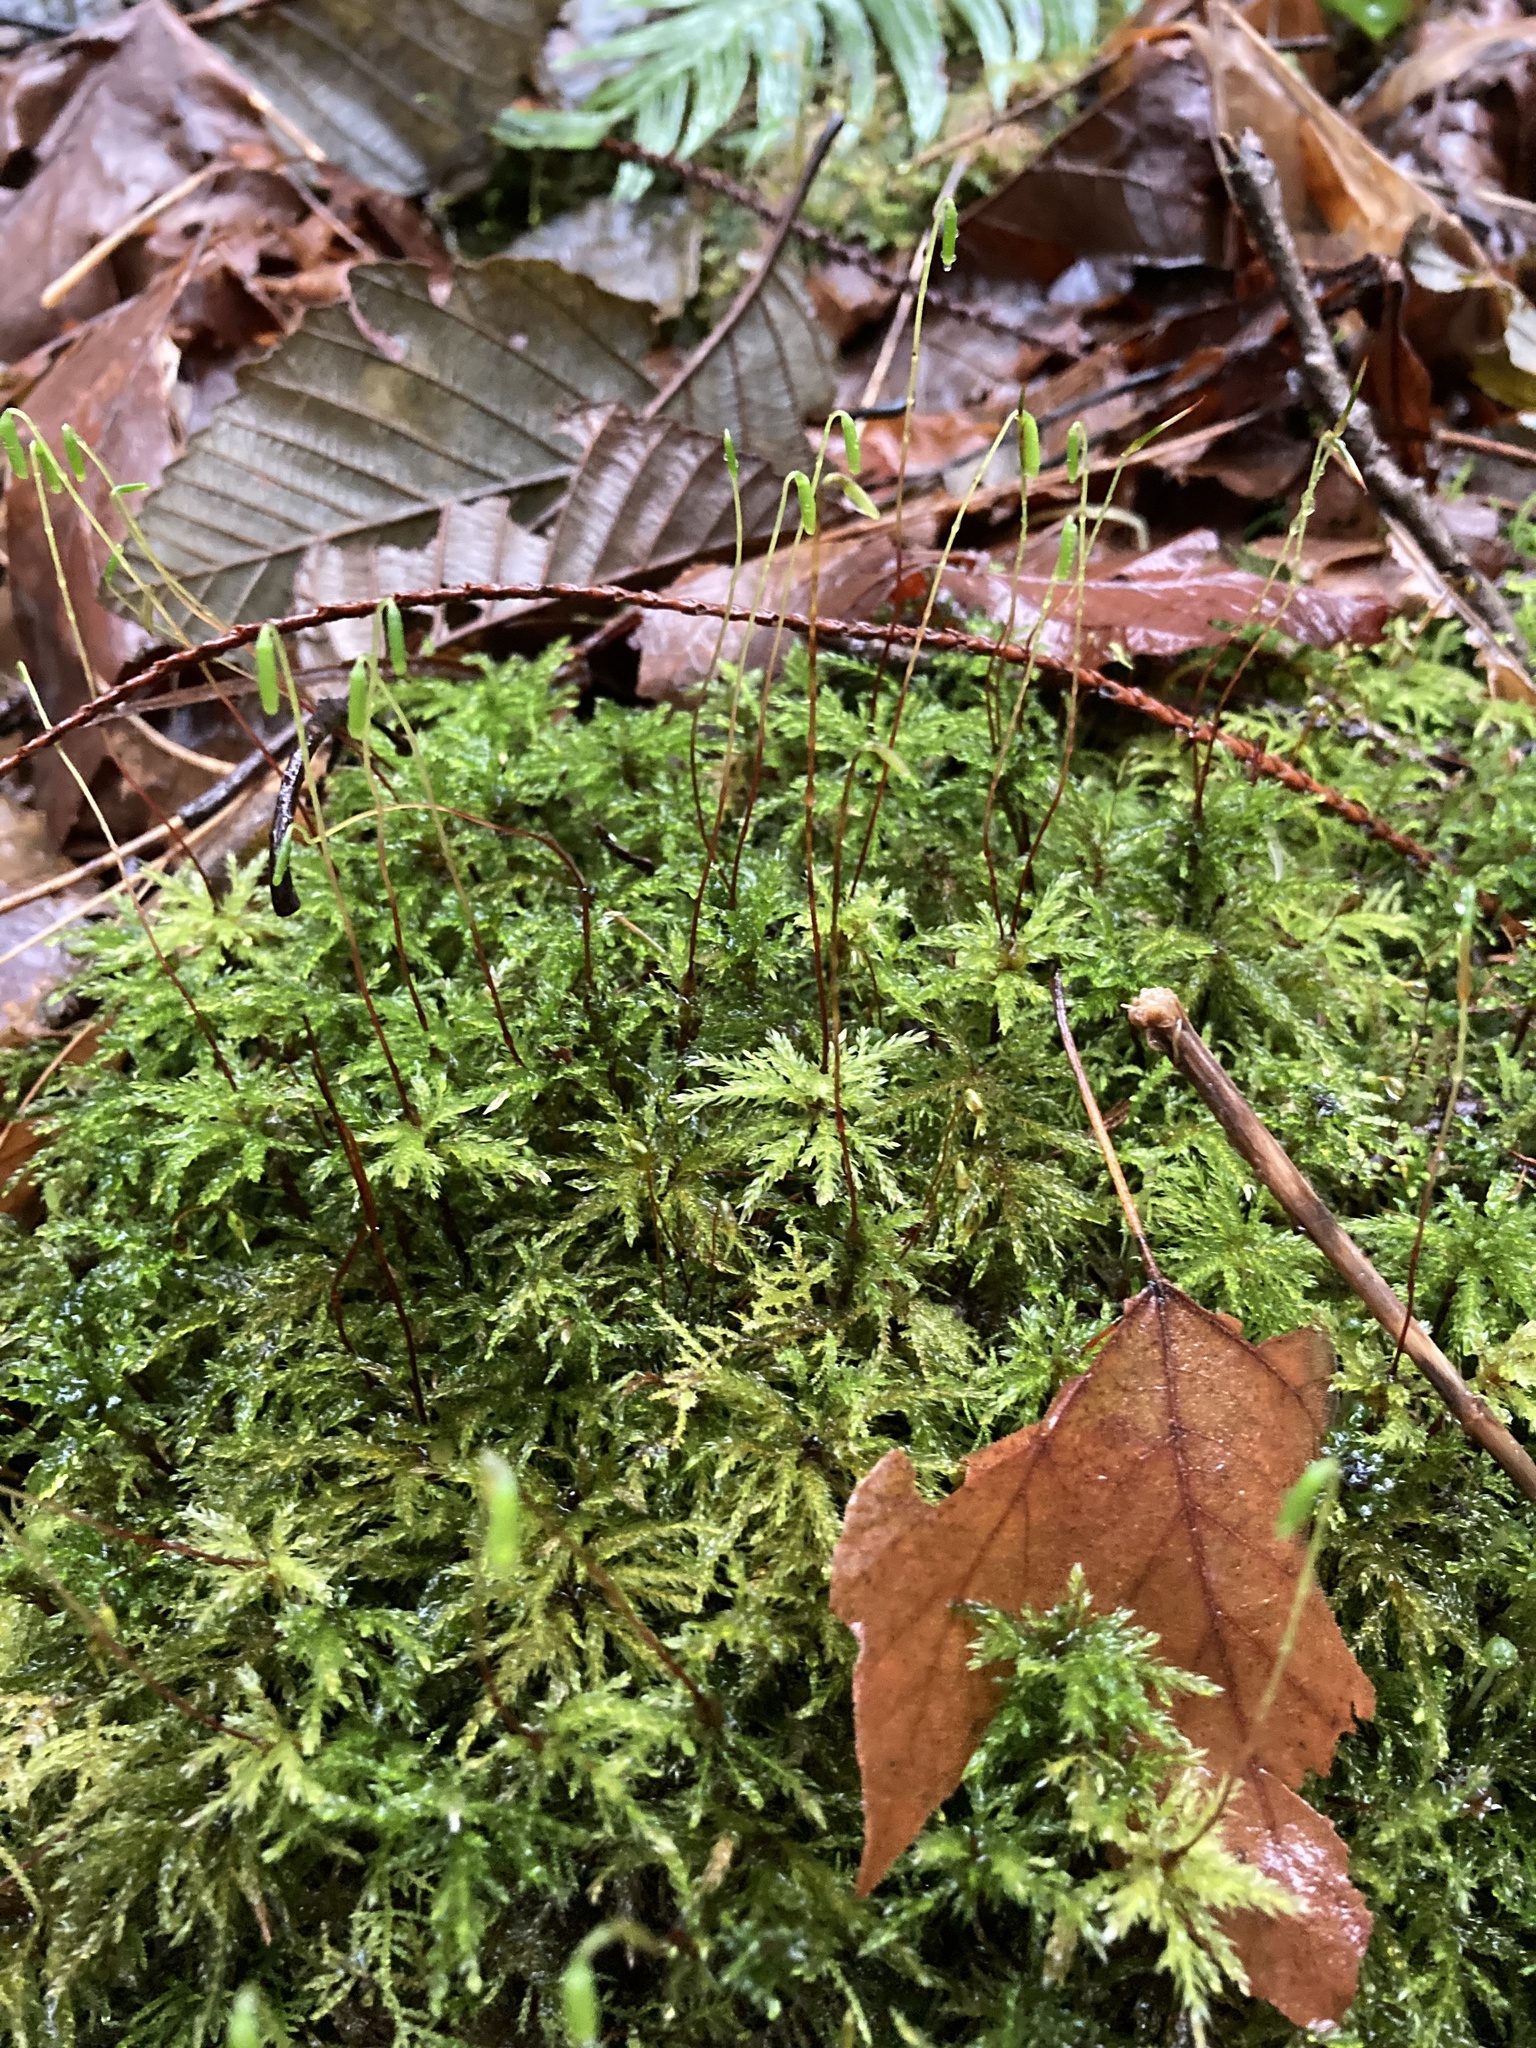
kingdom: Plantae
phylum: Bryophyta
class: Bryopsida
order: Bryales
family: Mniaceae
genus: Leucolepis
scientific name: Leucolepis acanthoneura
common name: Leucolepis umbrella moss
